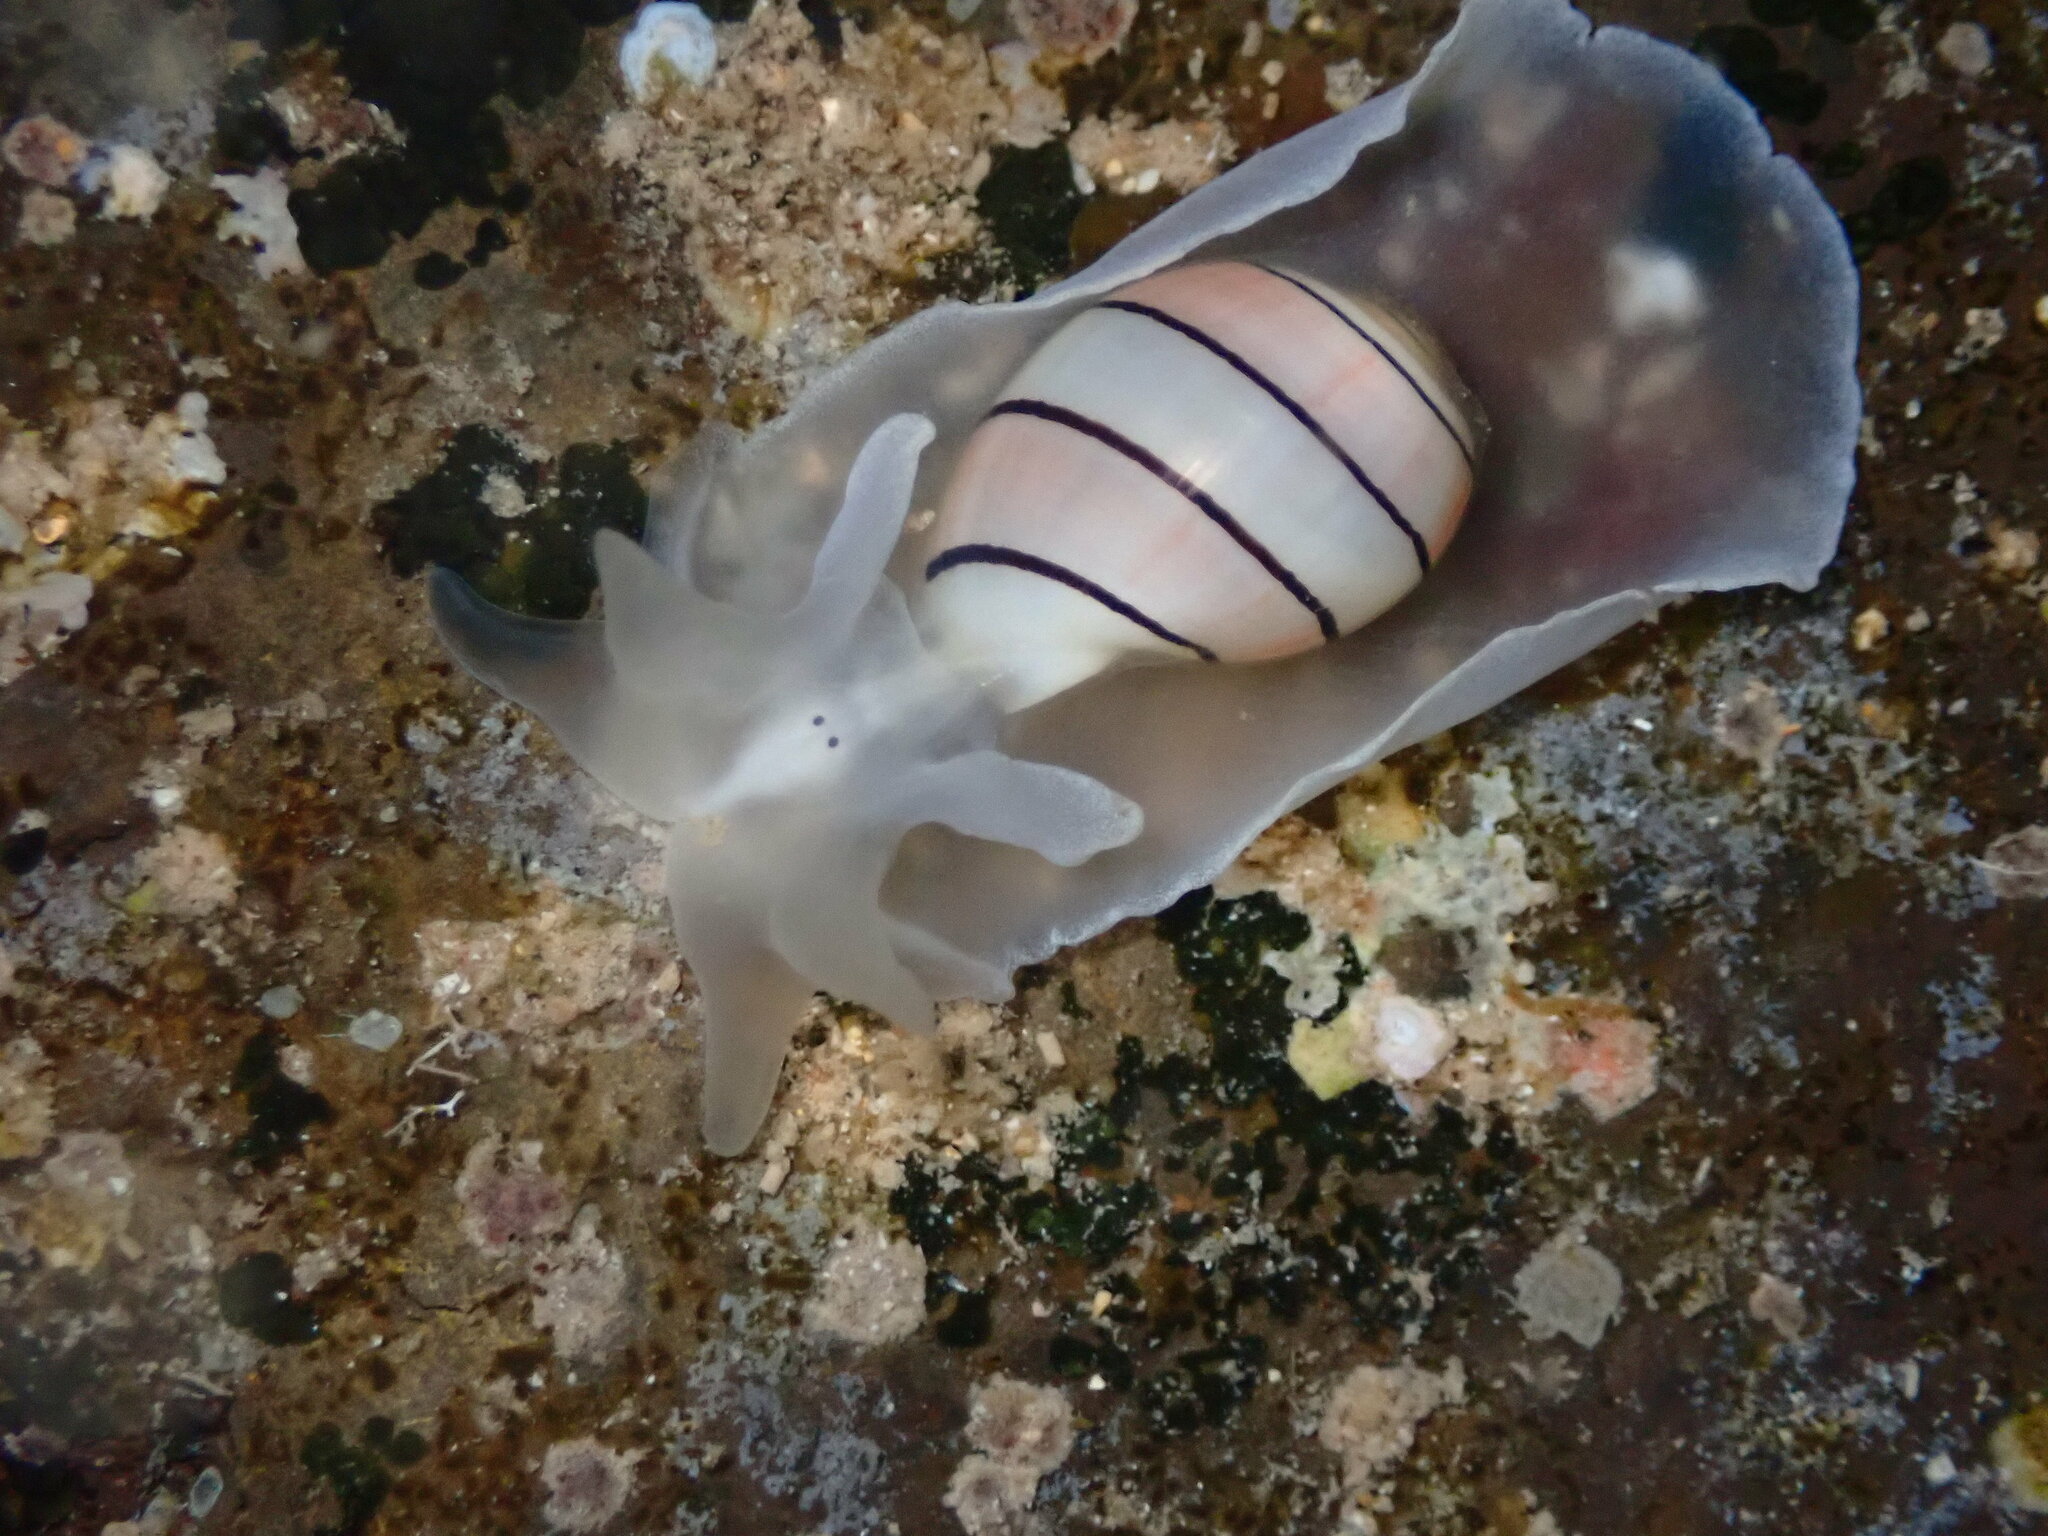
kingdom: Animalia
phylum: Mollusca
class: Gastropoda
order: Cephalaspidea
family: Aplustridae
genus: Aplustrum
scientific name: Aplustrum amplustre
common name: Royal paperbubble
